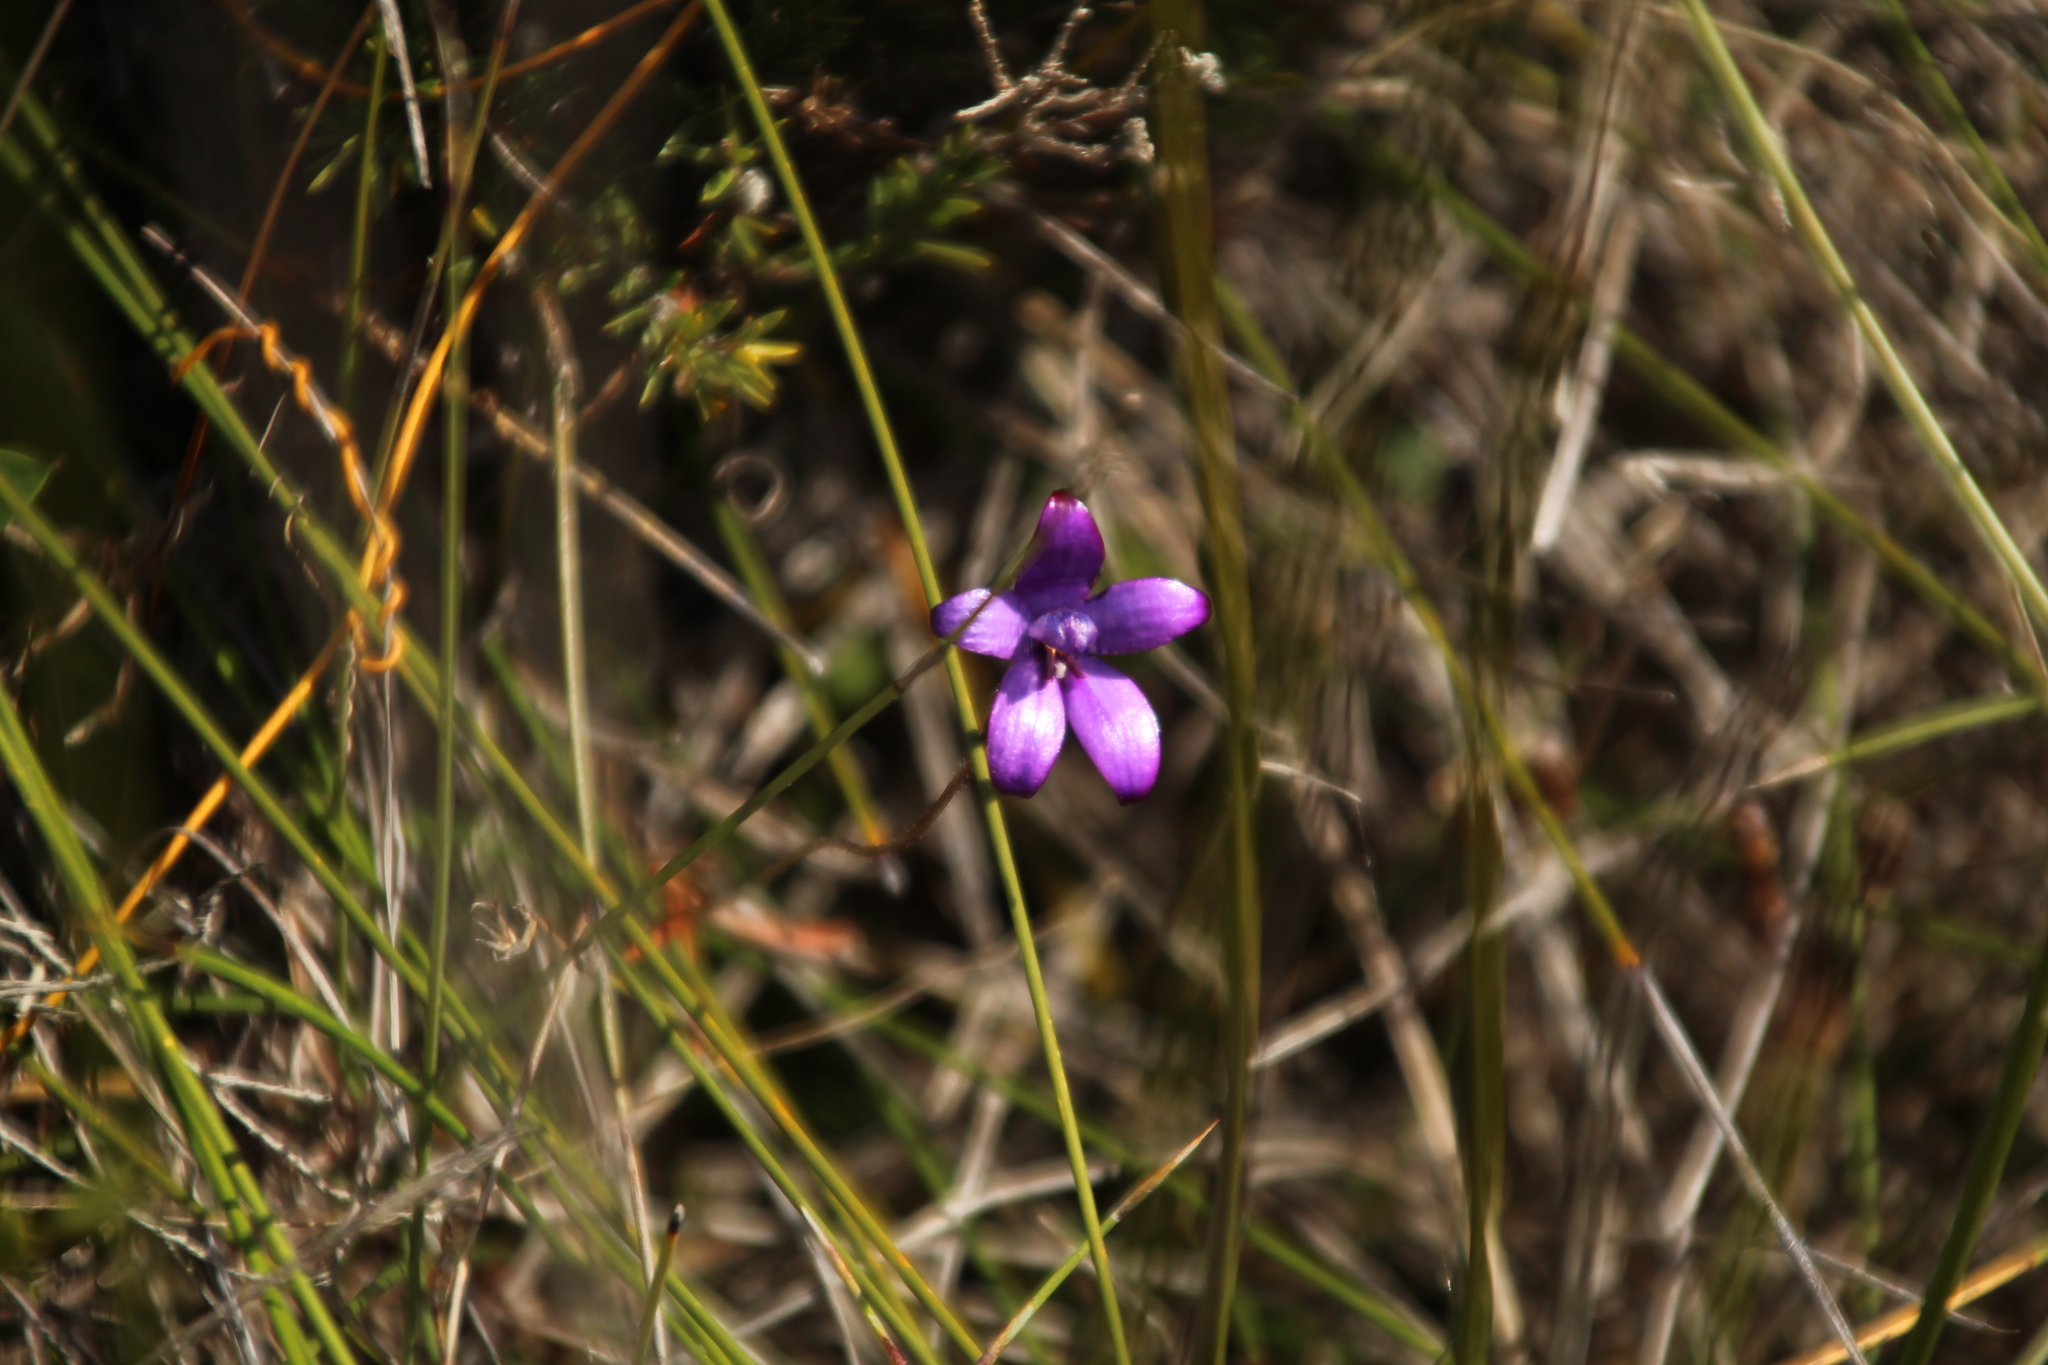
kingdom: Plantae
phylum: Tracheophyta
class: Liliopsida
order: Asparagales
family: Orchidaceae
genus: Caladenia
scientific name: Caladenia brunonis
